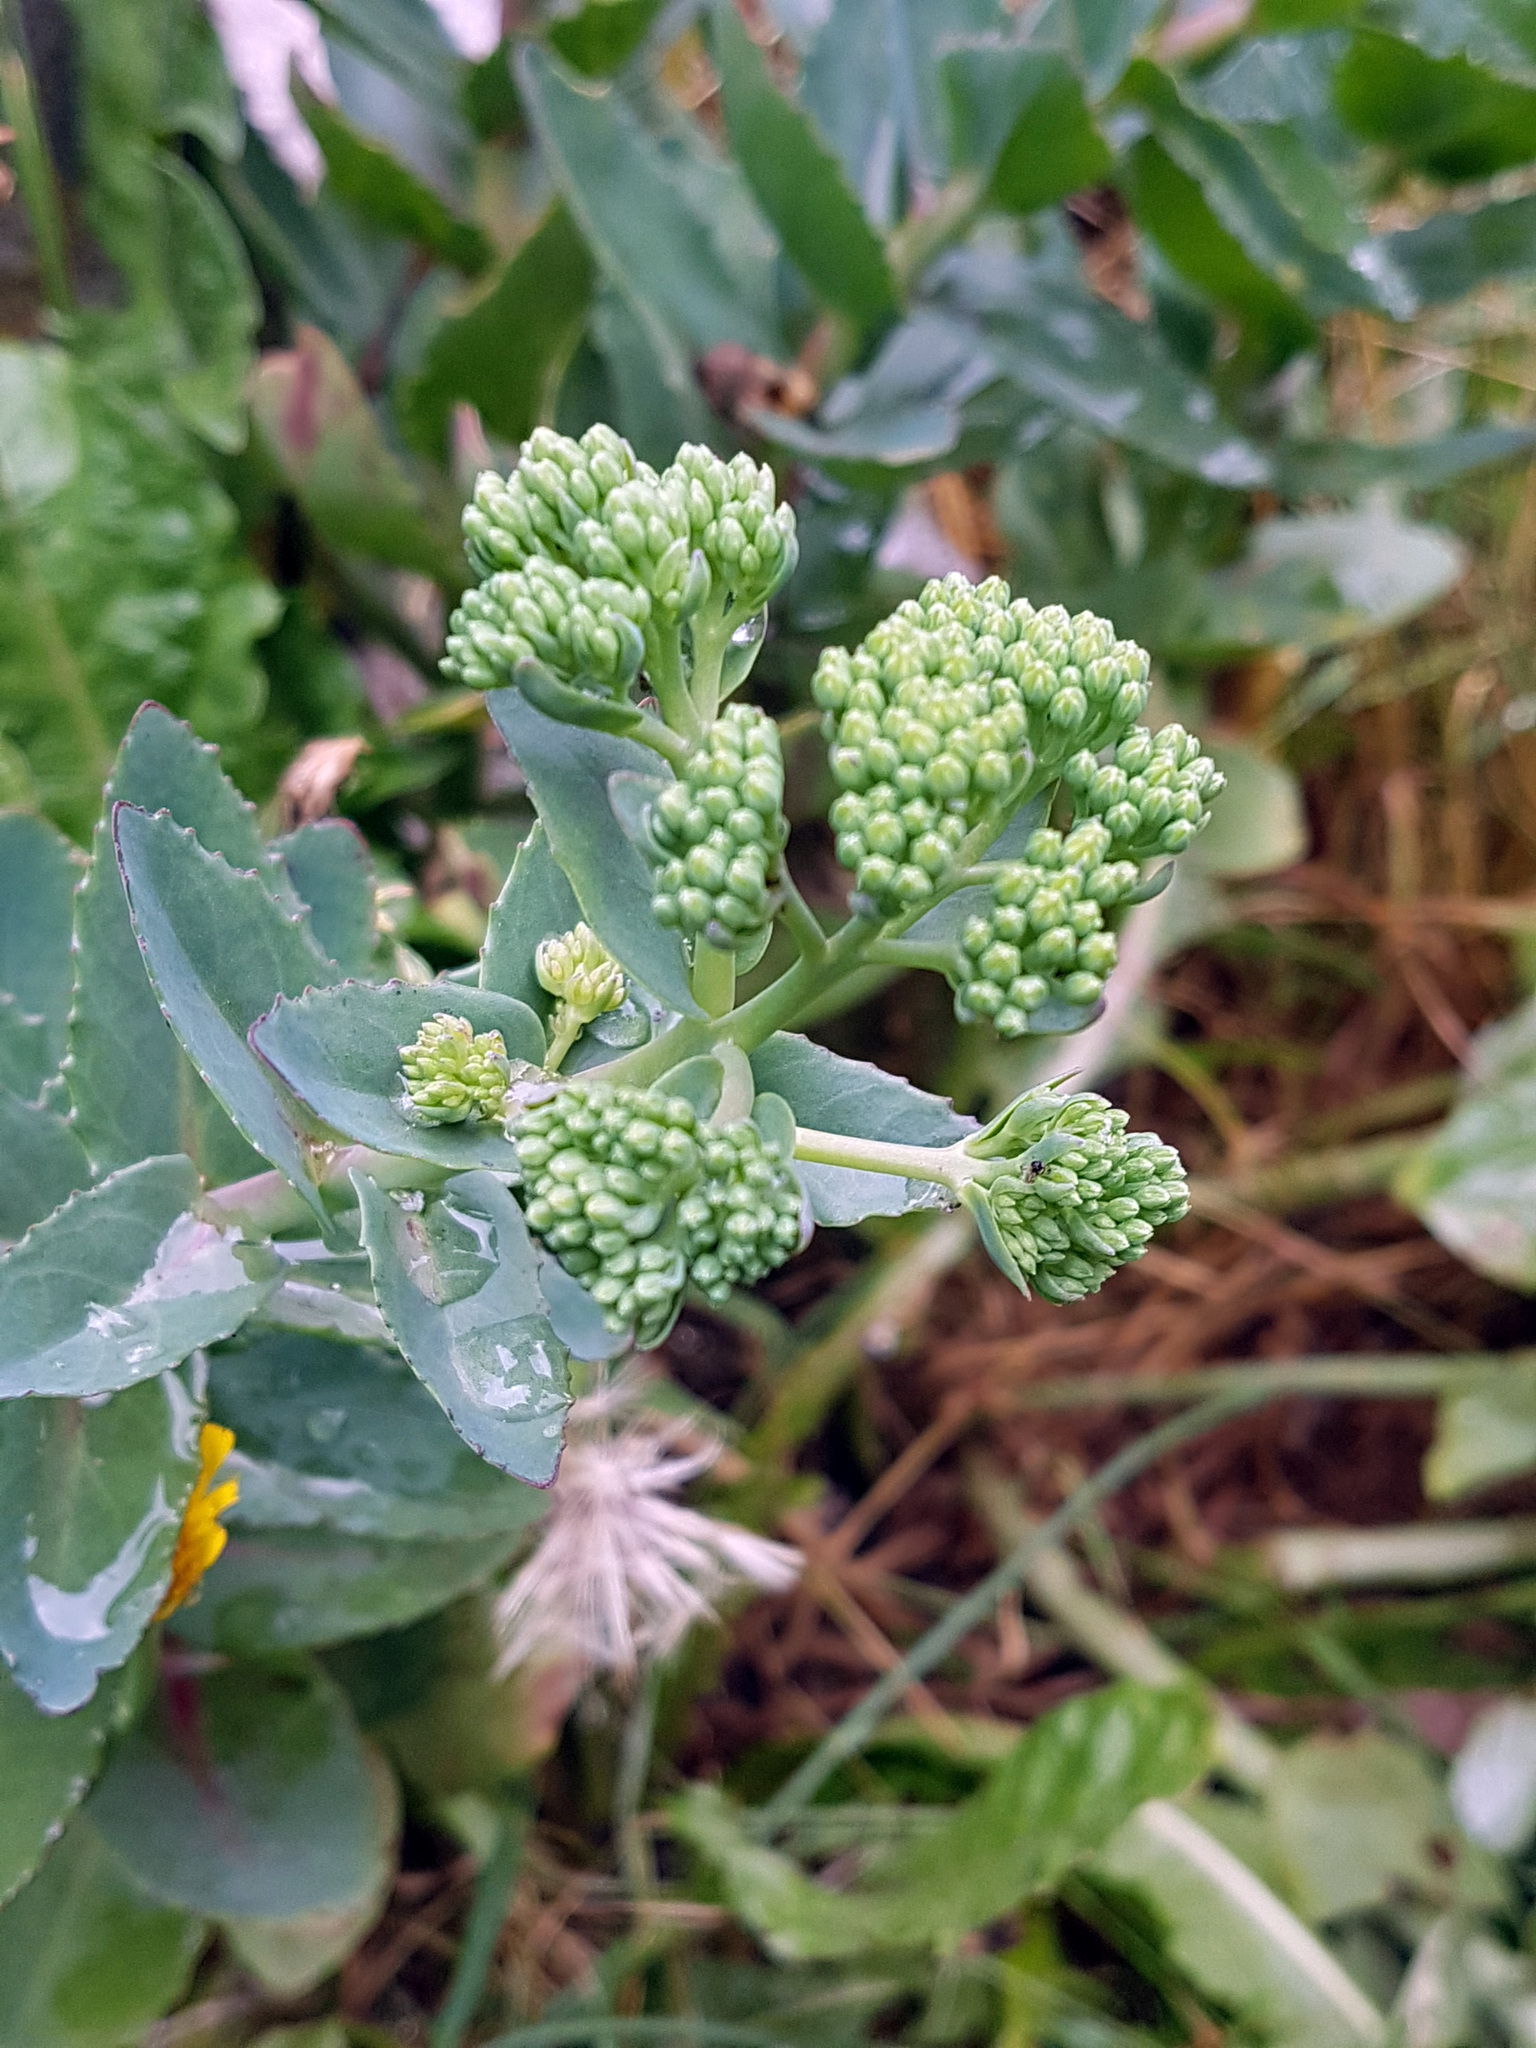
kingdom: Plantae
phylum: Tracheophyta
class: Magnoliopsida
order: Saxifragales
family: Crassulaceae
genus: Hylotelephium
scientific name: Hylotelephium maximum
